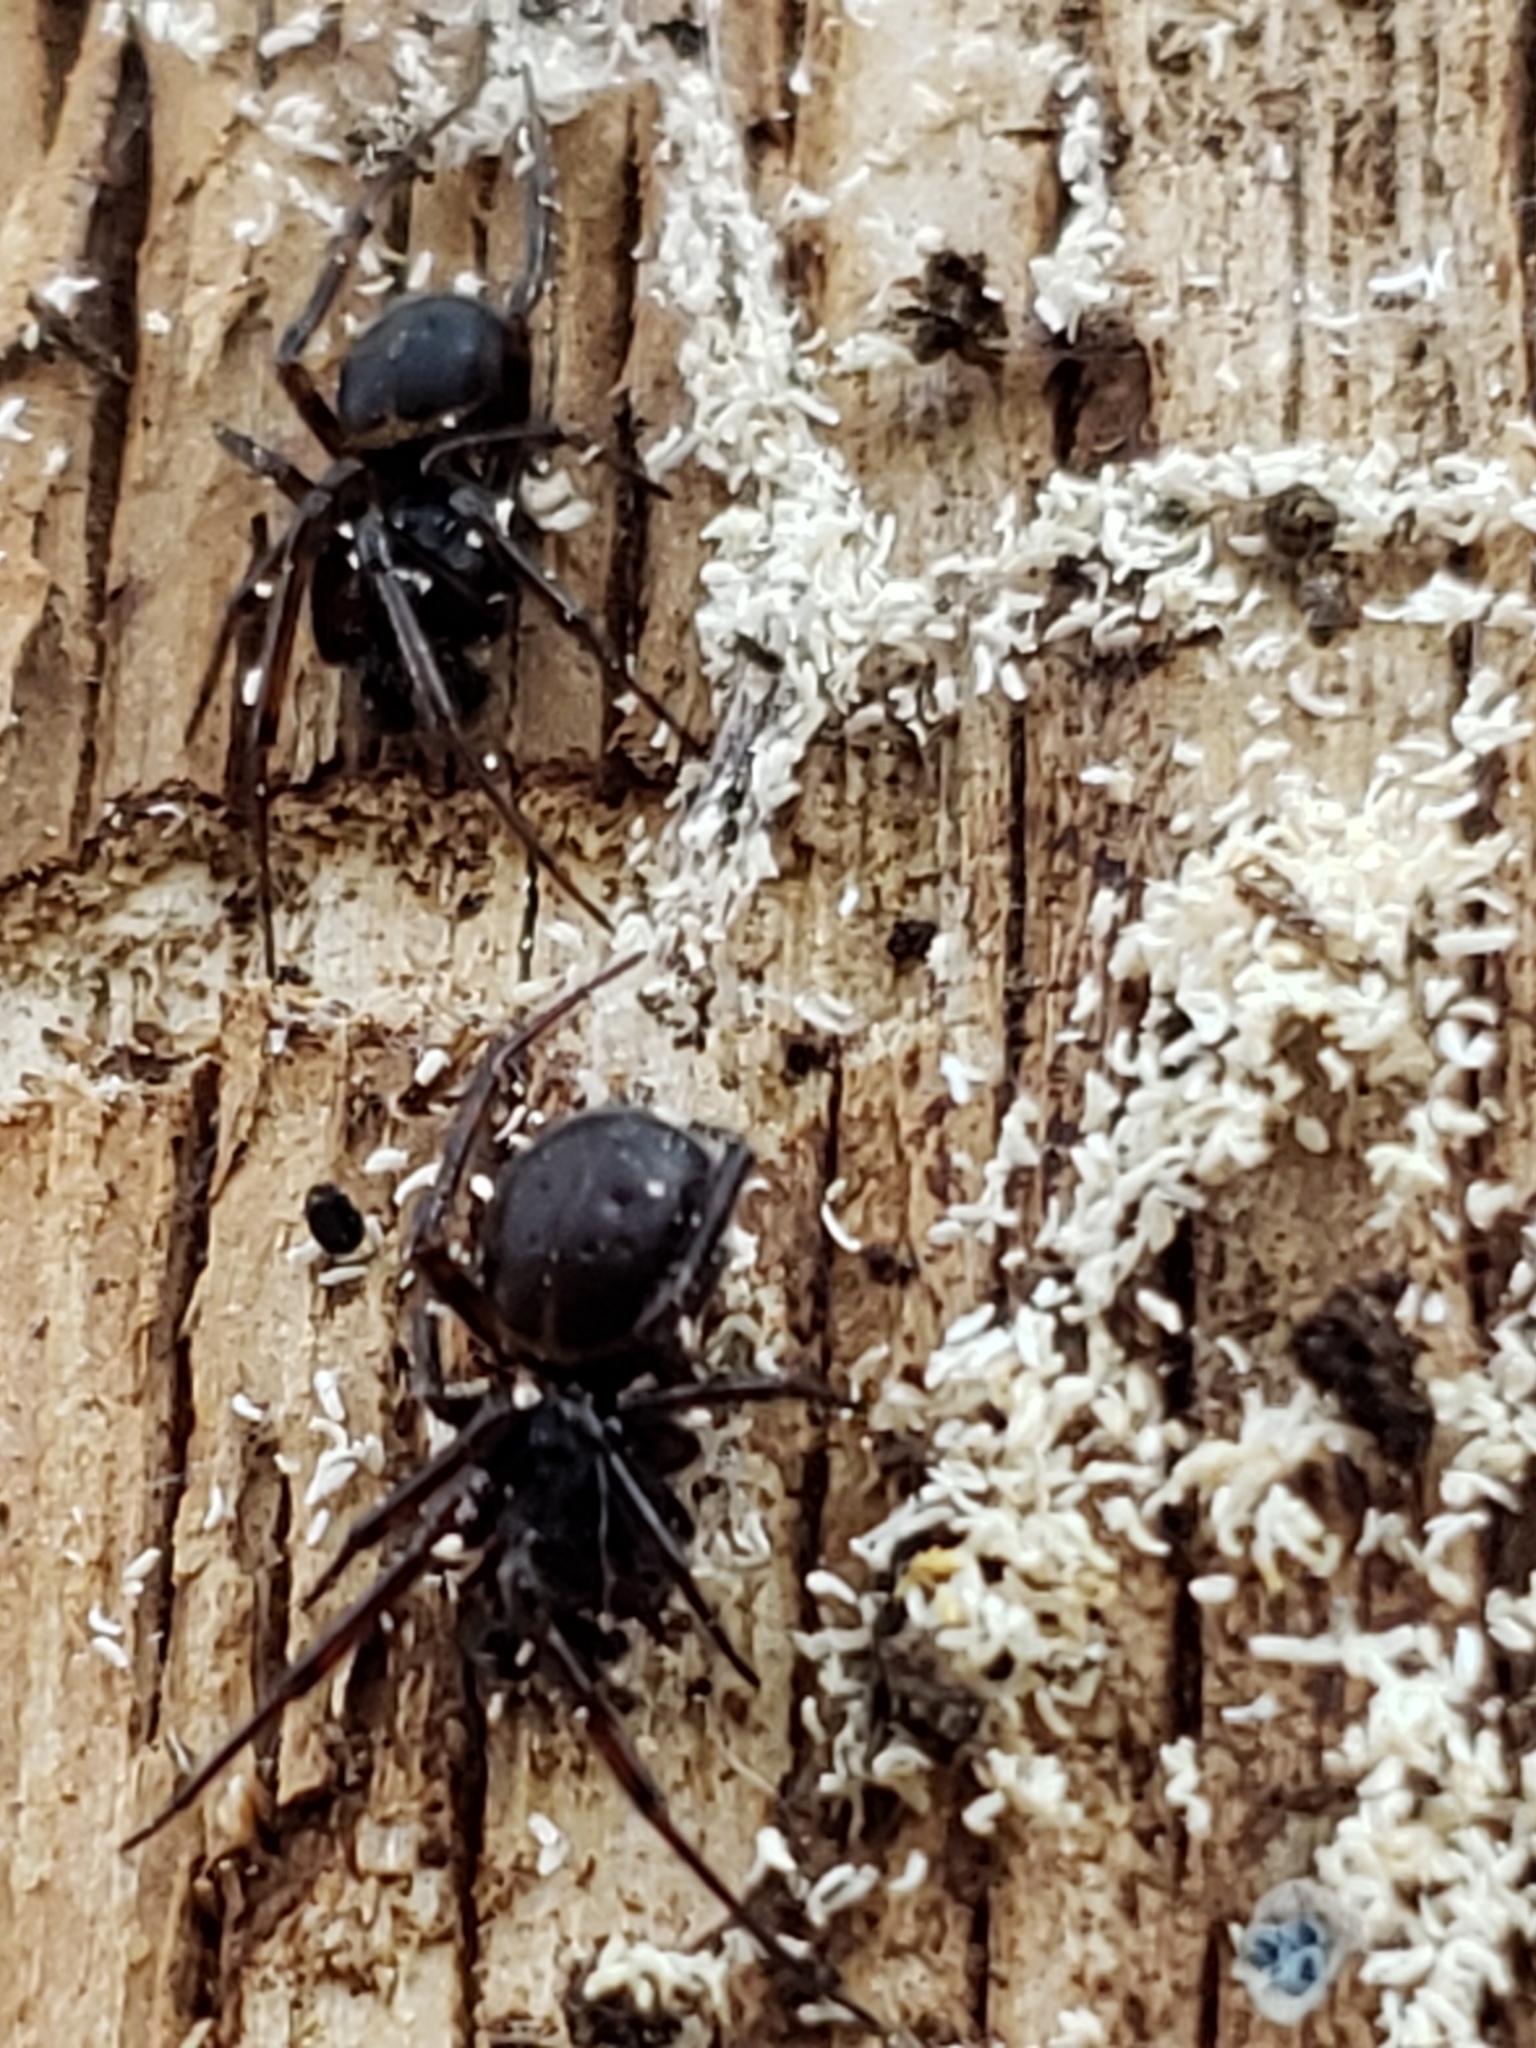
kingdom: Animalia
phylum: Arthropoda
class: Arachnida
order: Araneae
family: Theridiidae
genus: Steatoda
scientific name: Steatoda borealis
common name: Boreal combfoot
